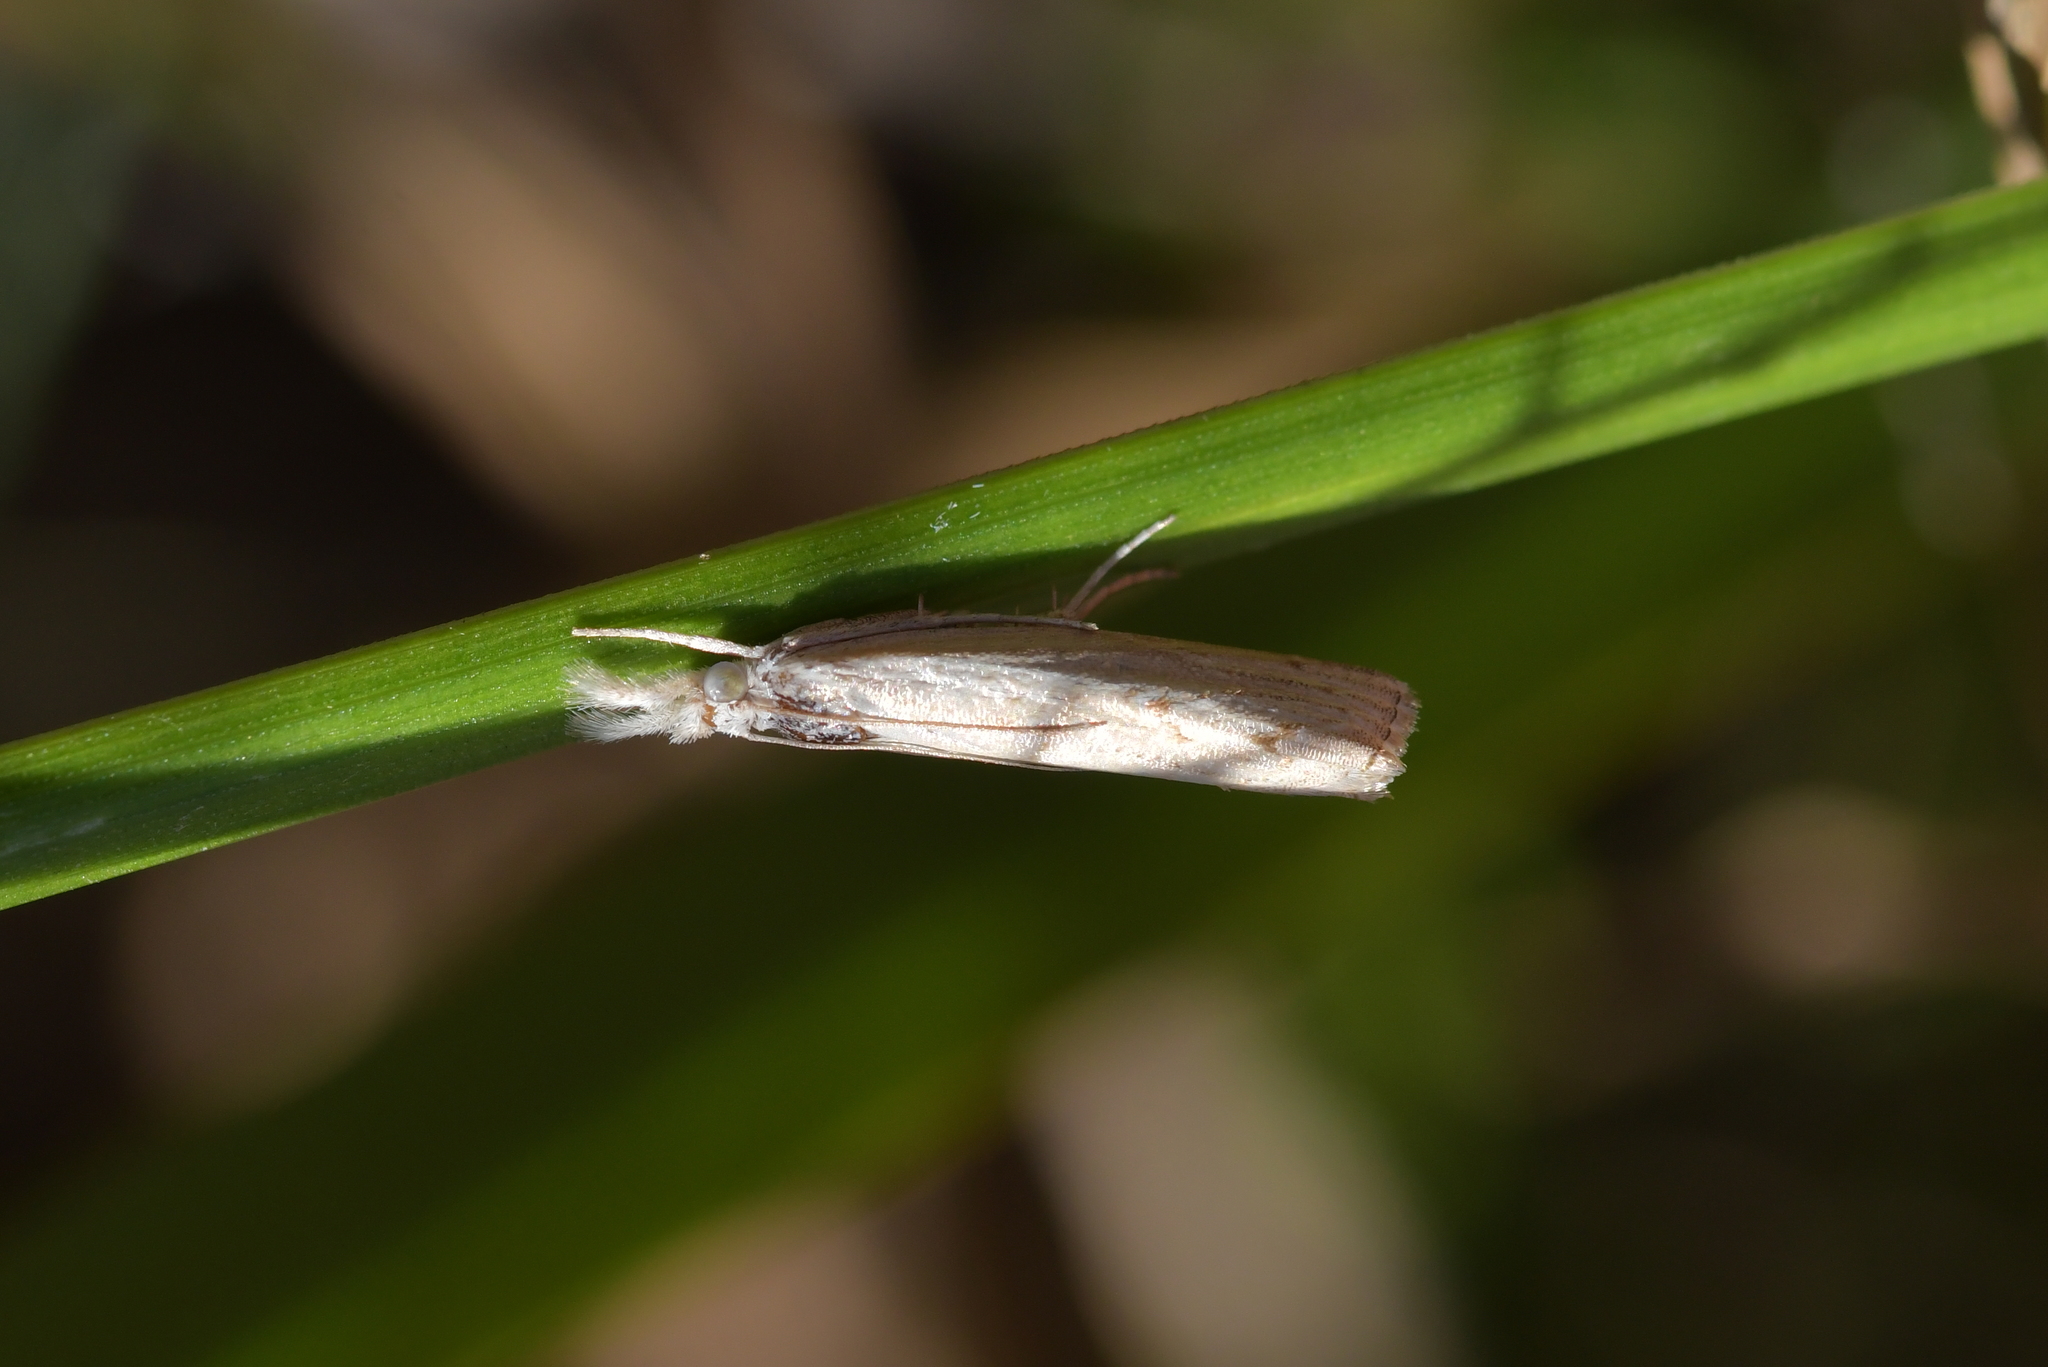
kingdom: Animalia
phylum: Arthropoda
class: Insecta
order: Lepidoptera
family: Crambidae
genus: Culladia
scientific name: Culladia cuneiferellus
